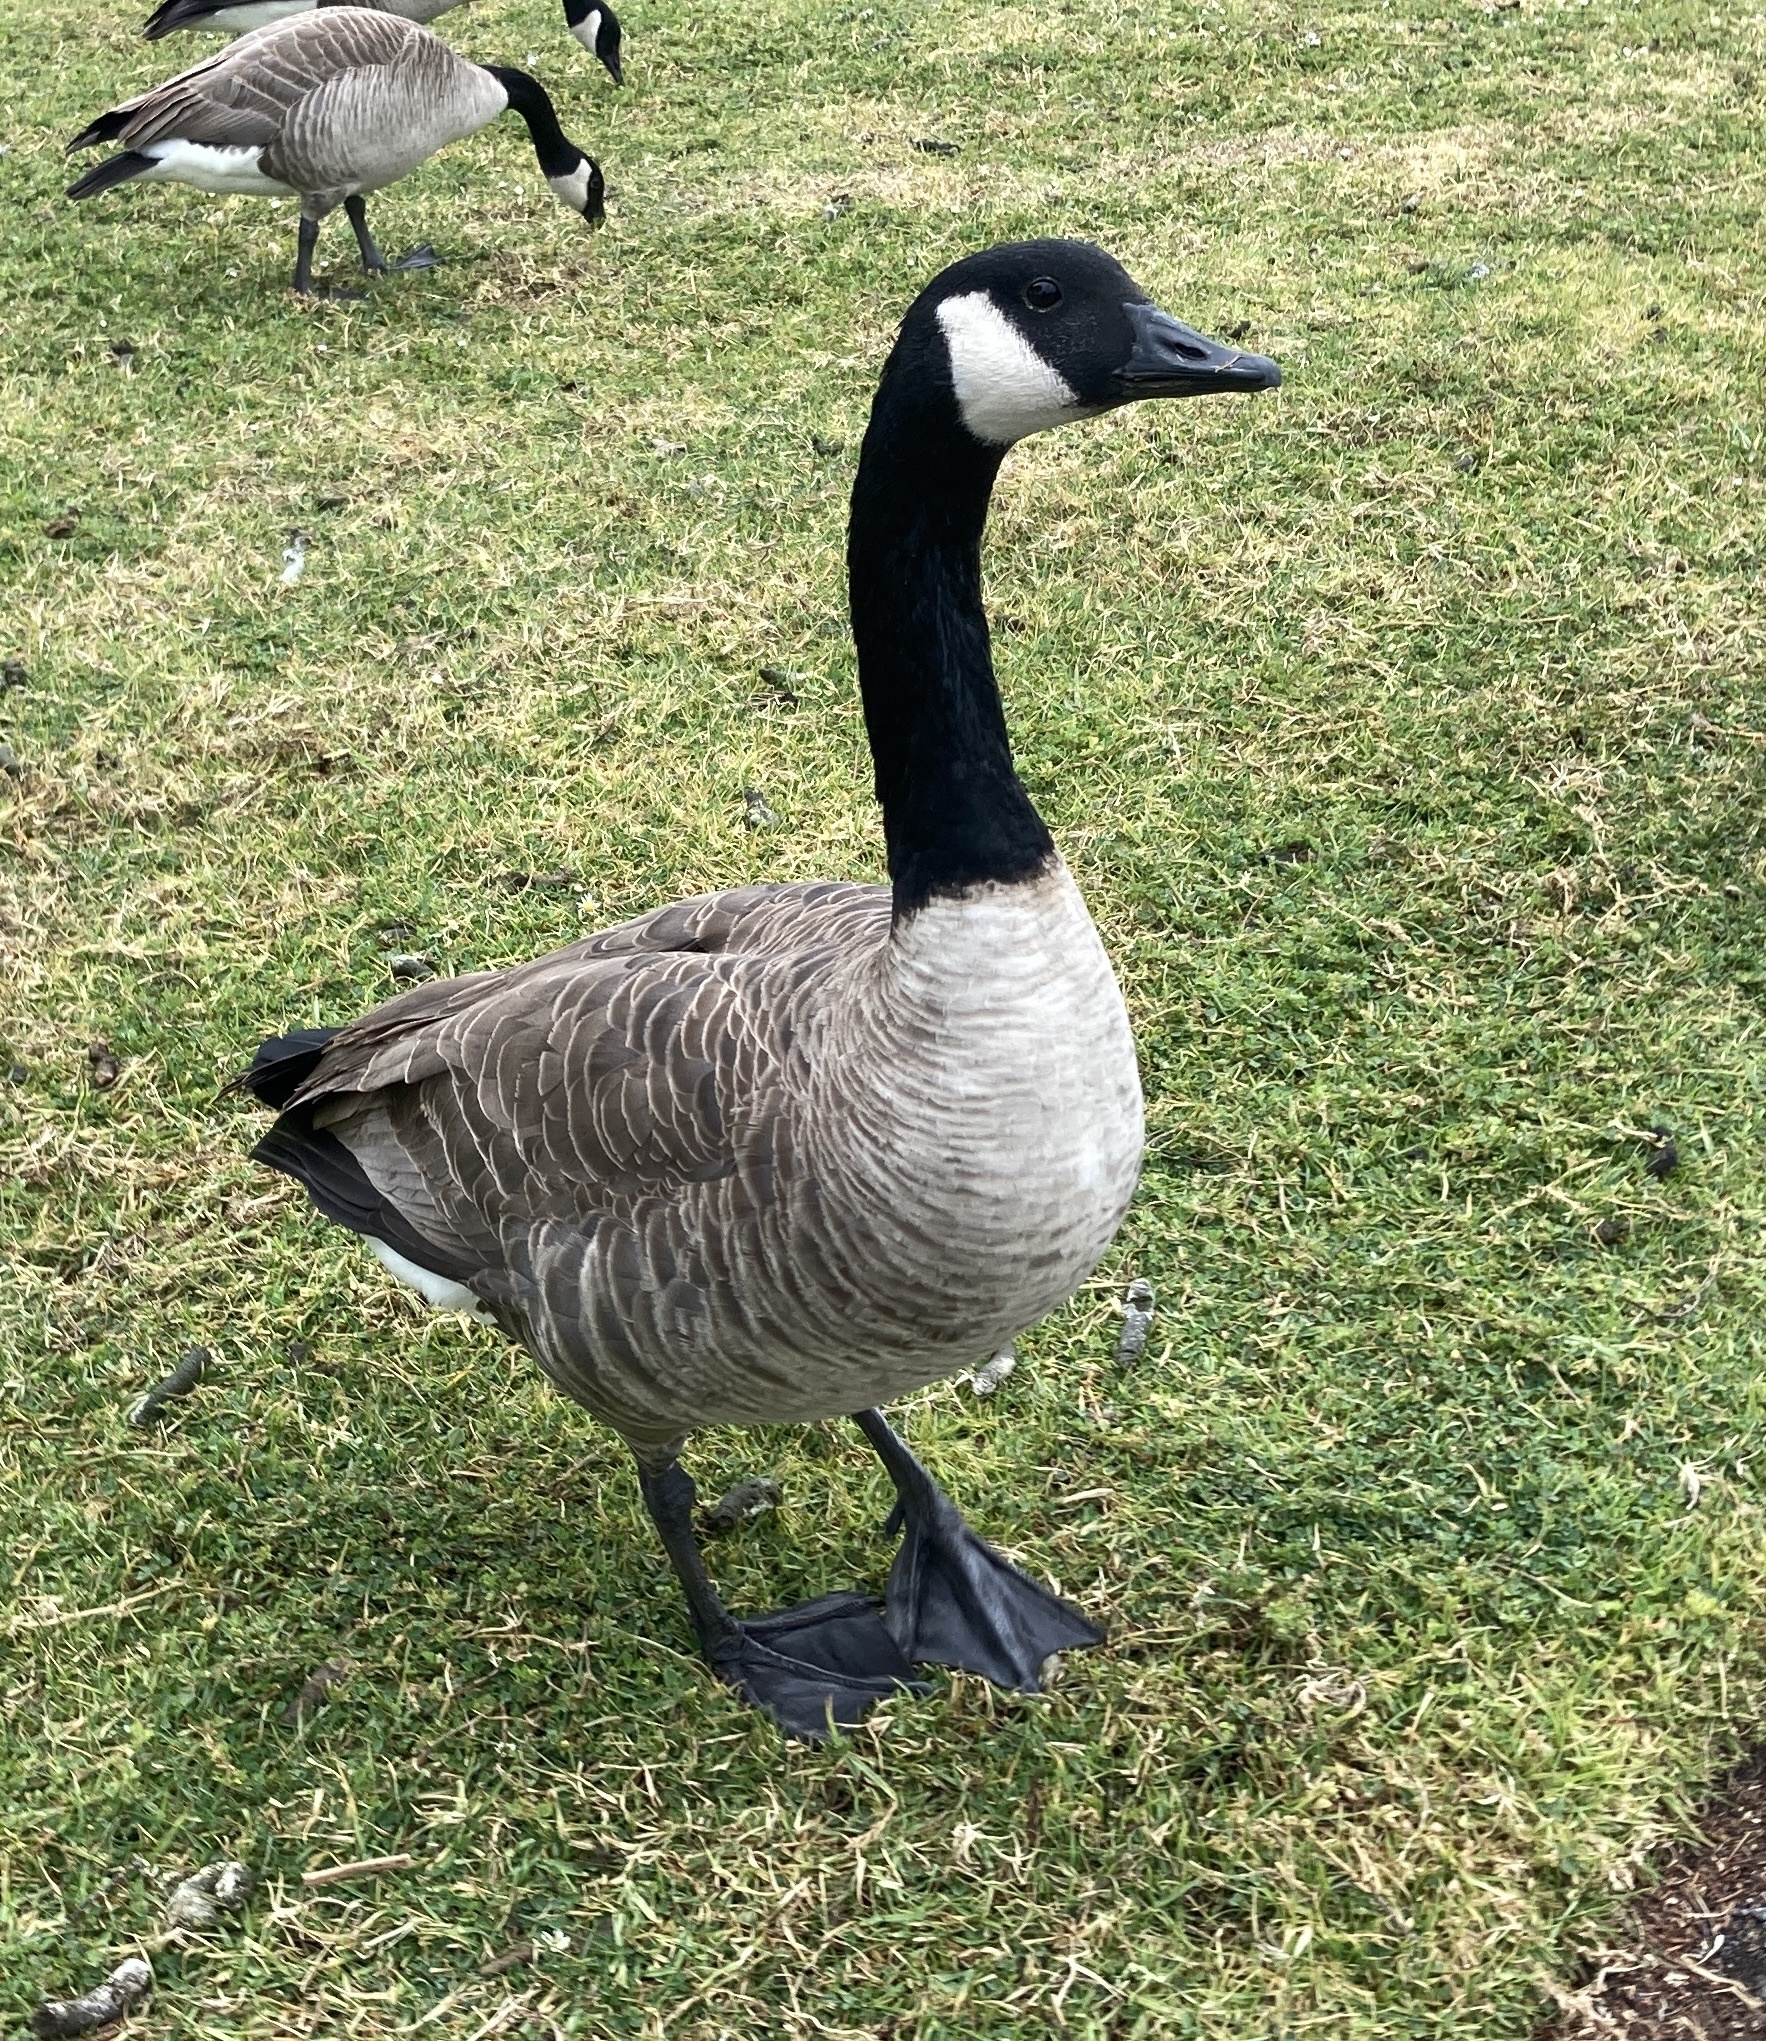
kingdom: Animalia
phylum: Chordata
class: Aves
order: Anseriformes
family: Anatidae
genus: Branta
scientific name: Branta canadensis
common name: Canada goose
